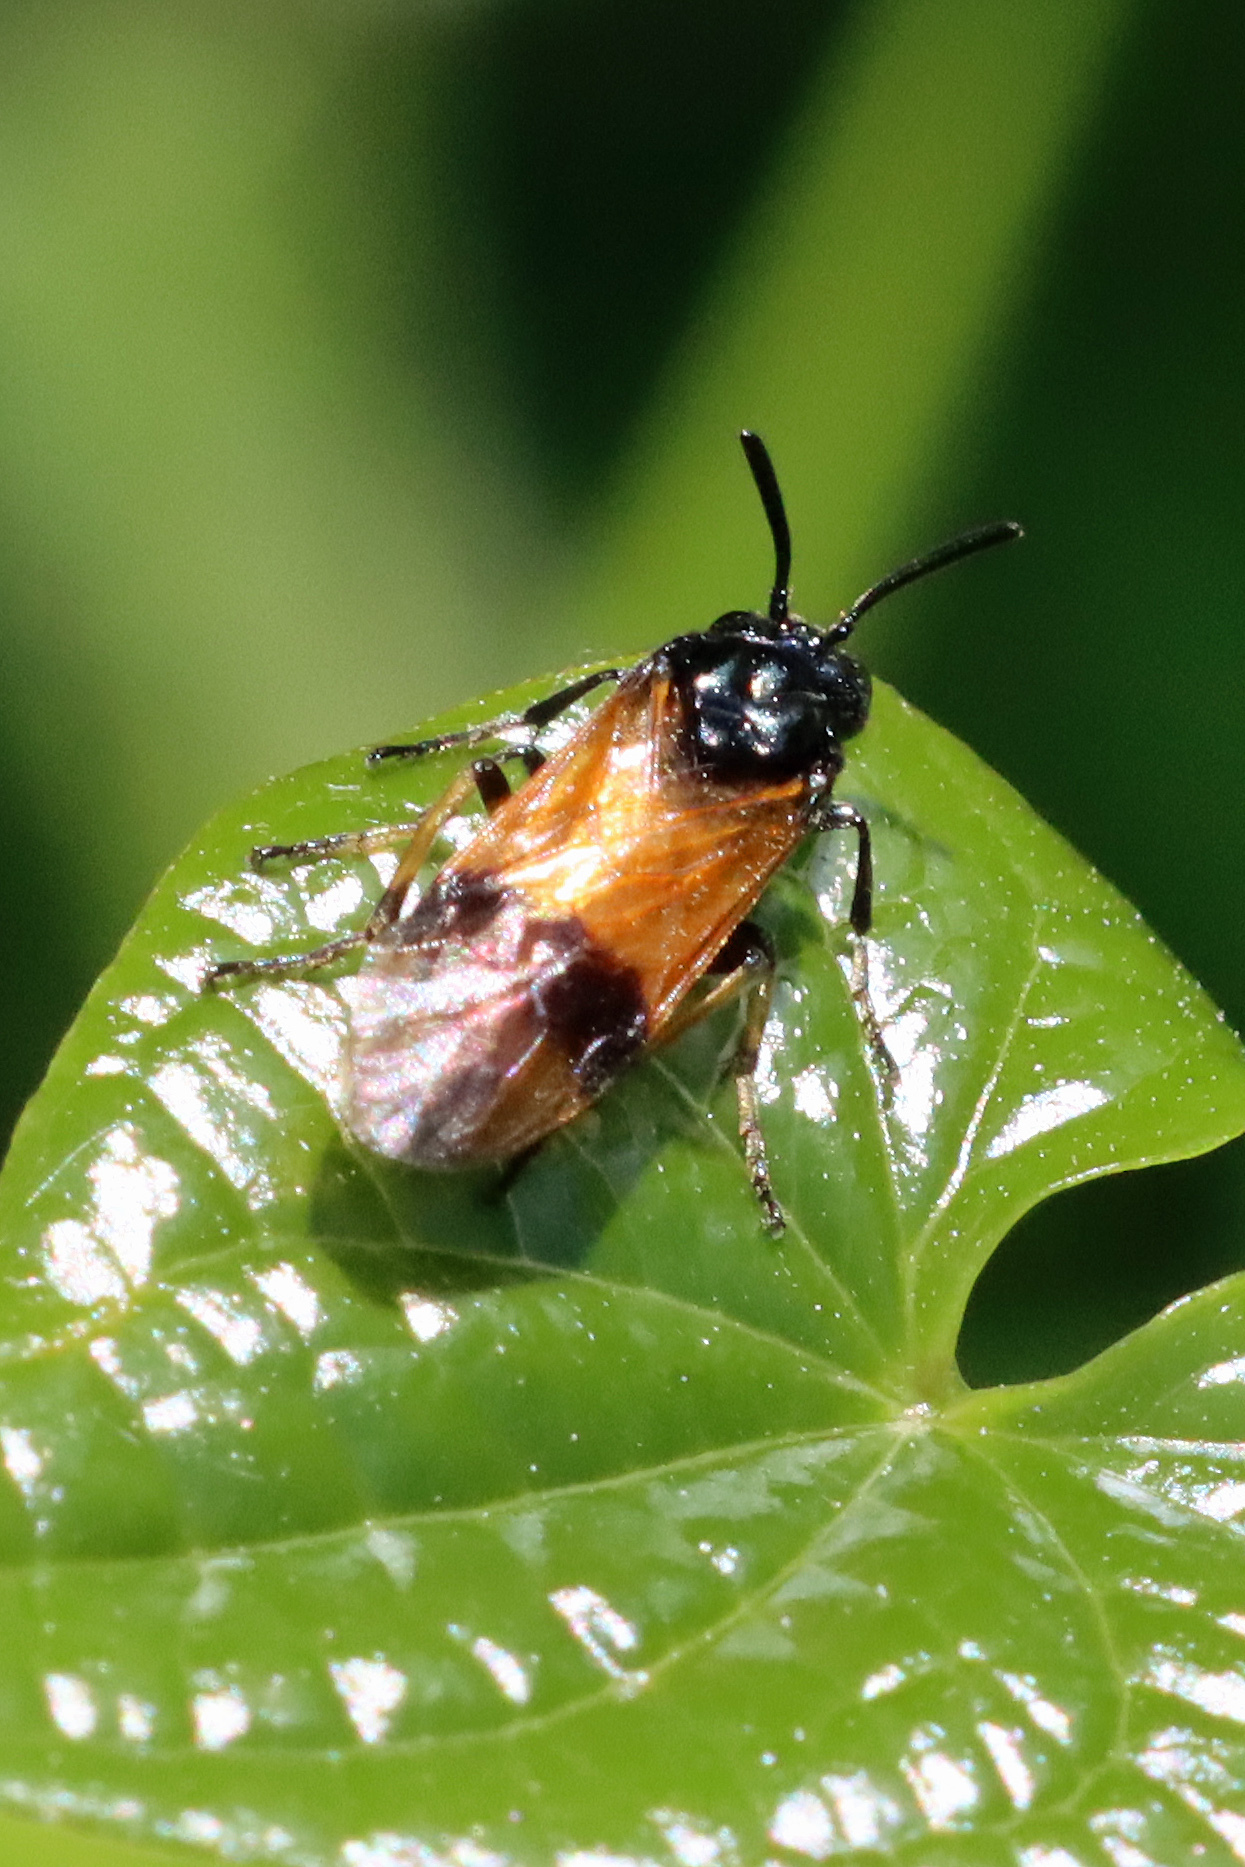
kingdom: Animalia
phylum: Arthropoda
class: Insecta
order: Hymenoptera
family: Argidae
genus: Arge
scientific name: Arge cyanocrocea
